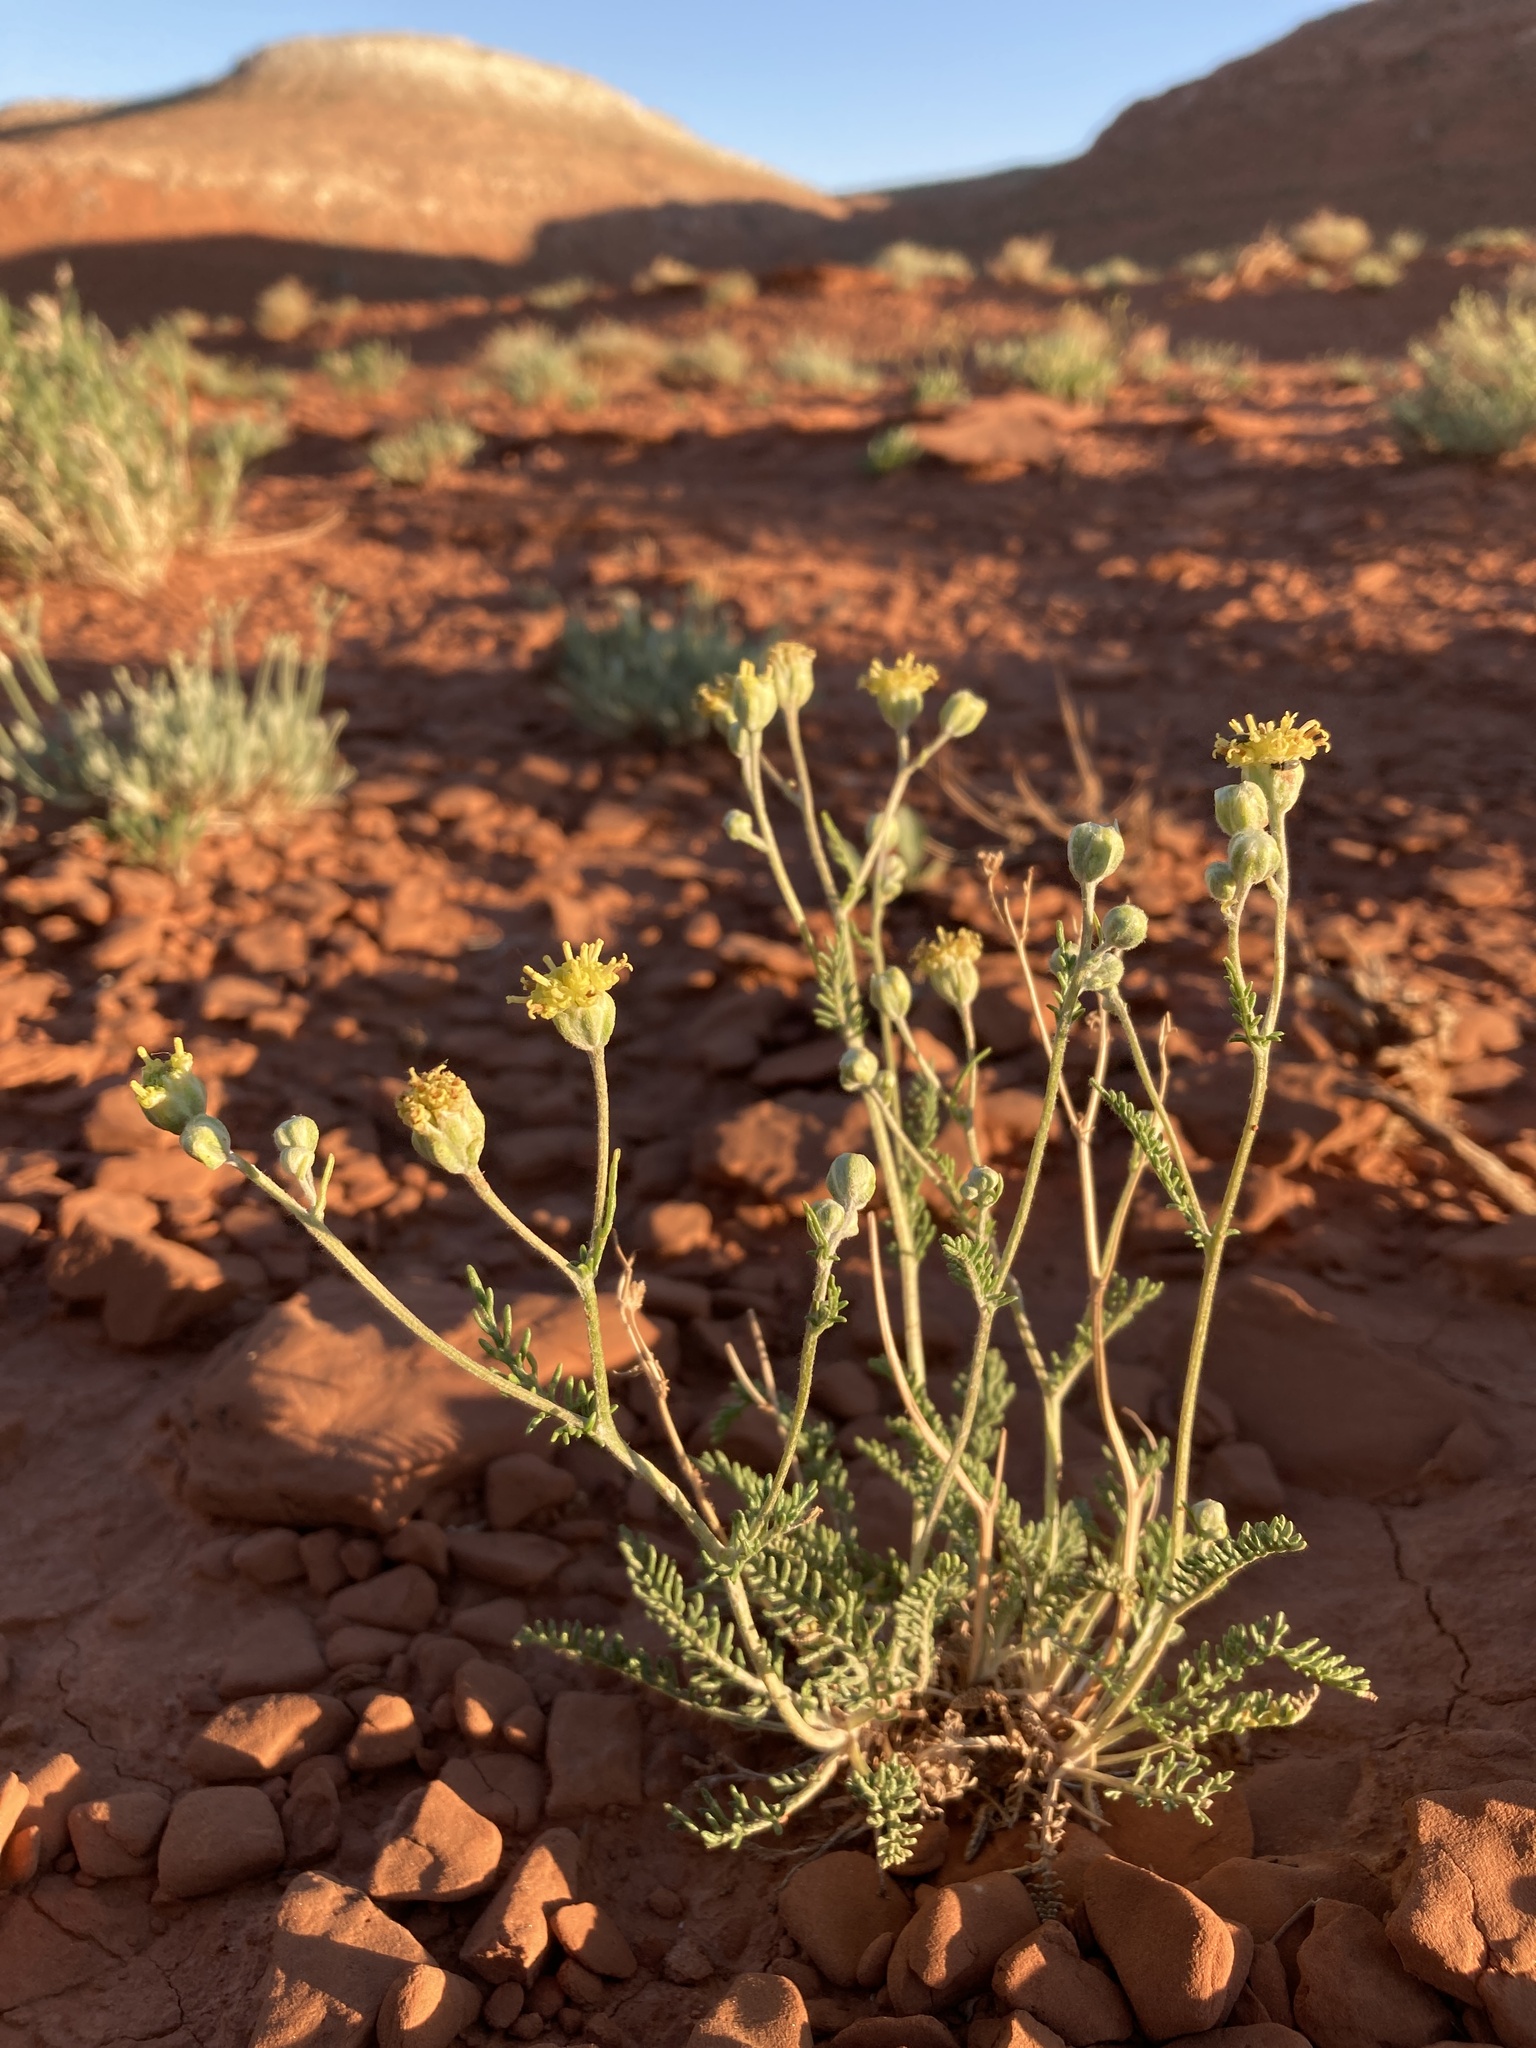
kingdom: Plantae
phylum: Tracheophyta
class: Magnoliopsida
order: Asterales
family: Asteraceae
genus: Hymenopappus
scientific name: Hymenopappus filifolius
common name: Columbia cutleaf
